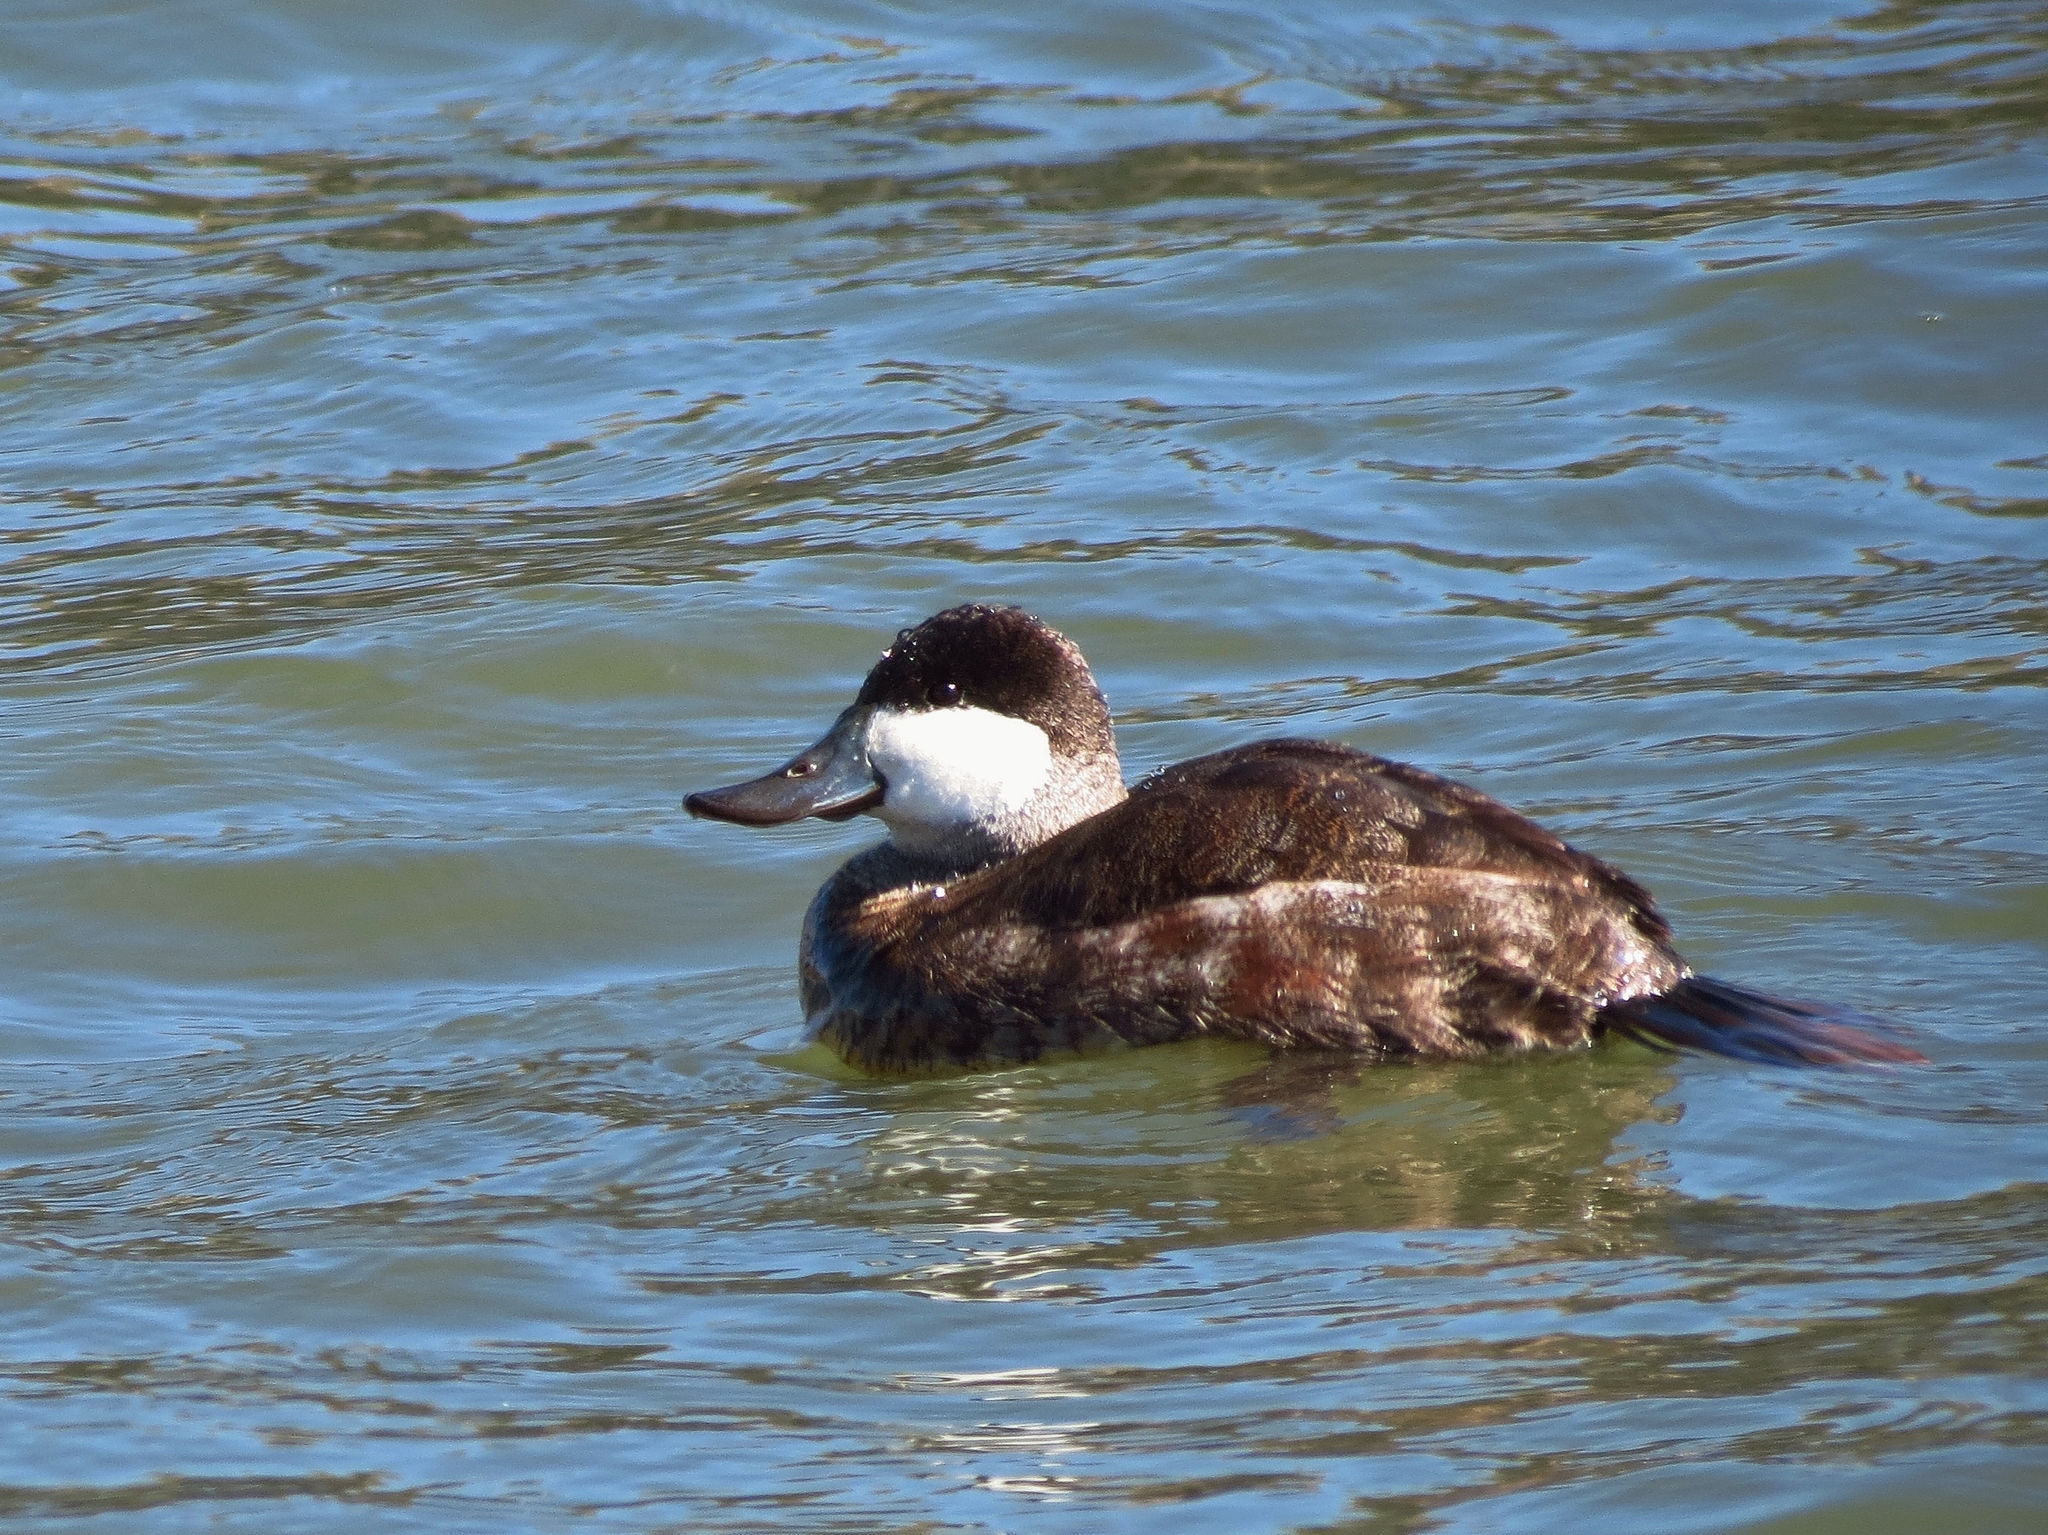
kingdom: Animalia
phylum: Chordata
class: Aves
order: Anseriformes
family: Anatidae
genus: Oxyura
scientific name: Oxyura jamaicensis
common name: Ruddy duck
